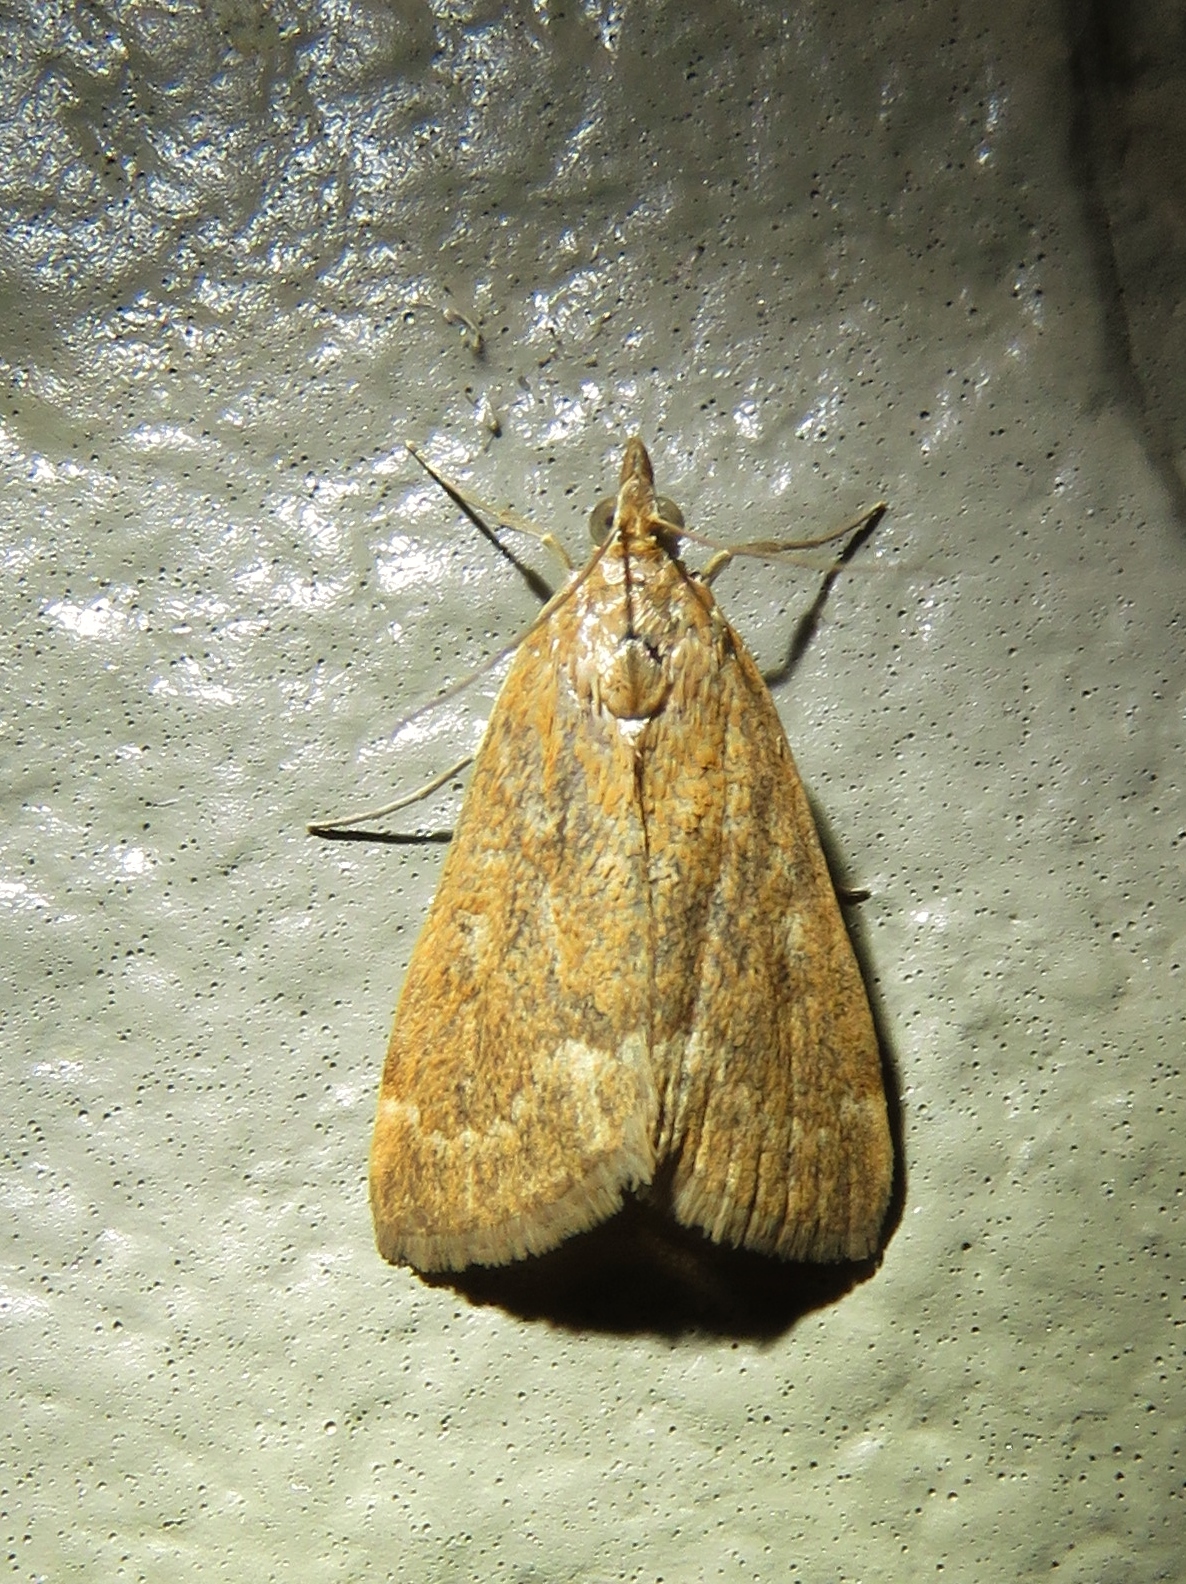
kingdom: Animalia
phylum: Arthropoda
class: Insecta
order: Lepidoptera
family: Crambidae
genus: Achyra
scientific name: Achyra rantalis
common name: Garden webworm
